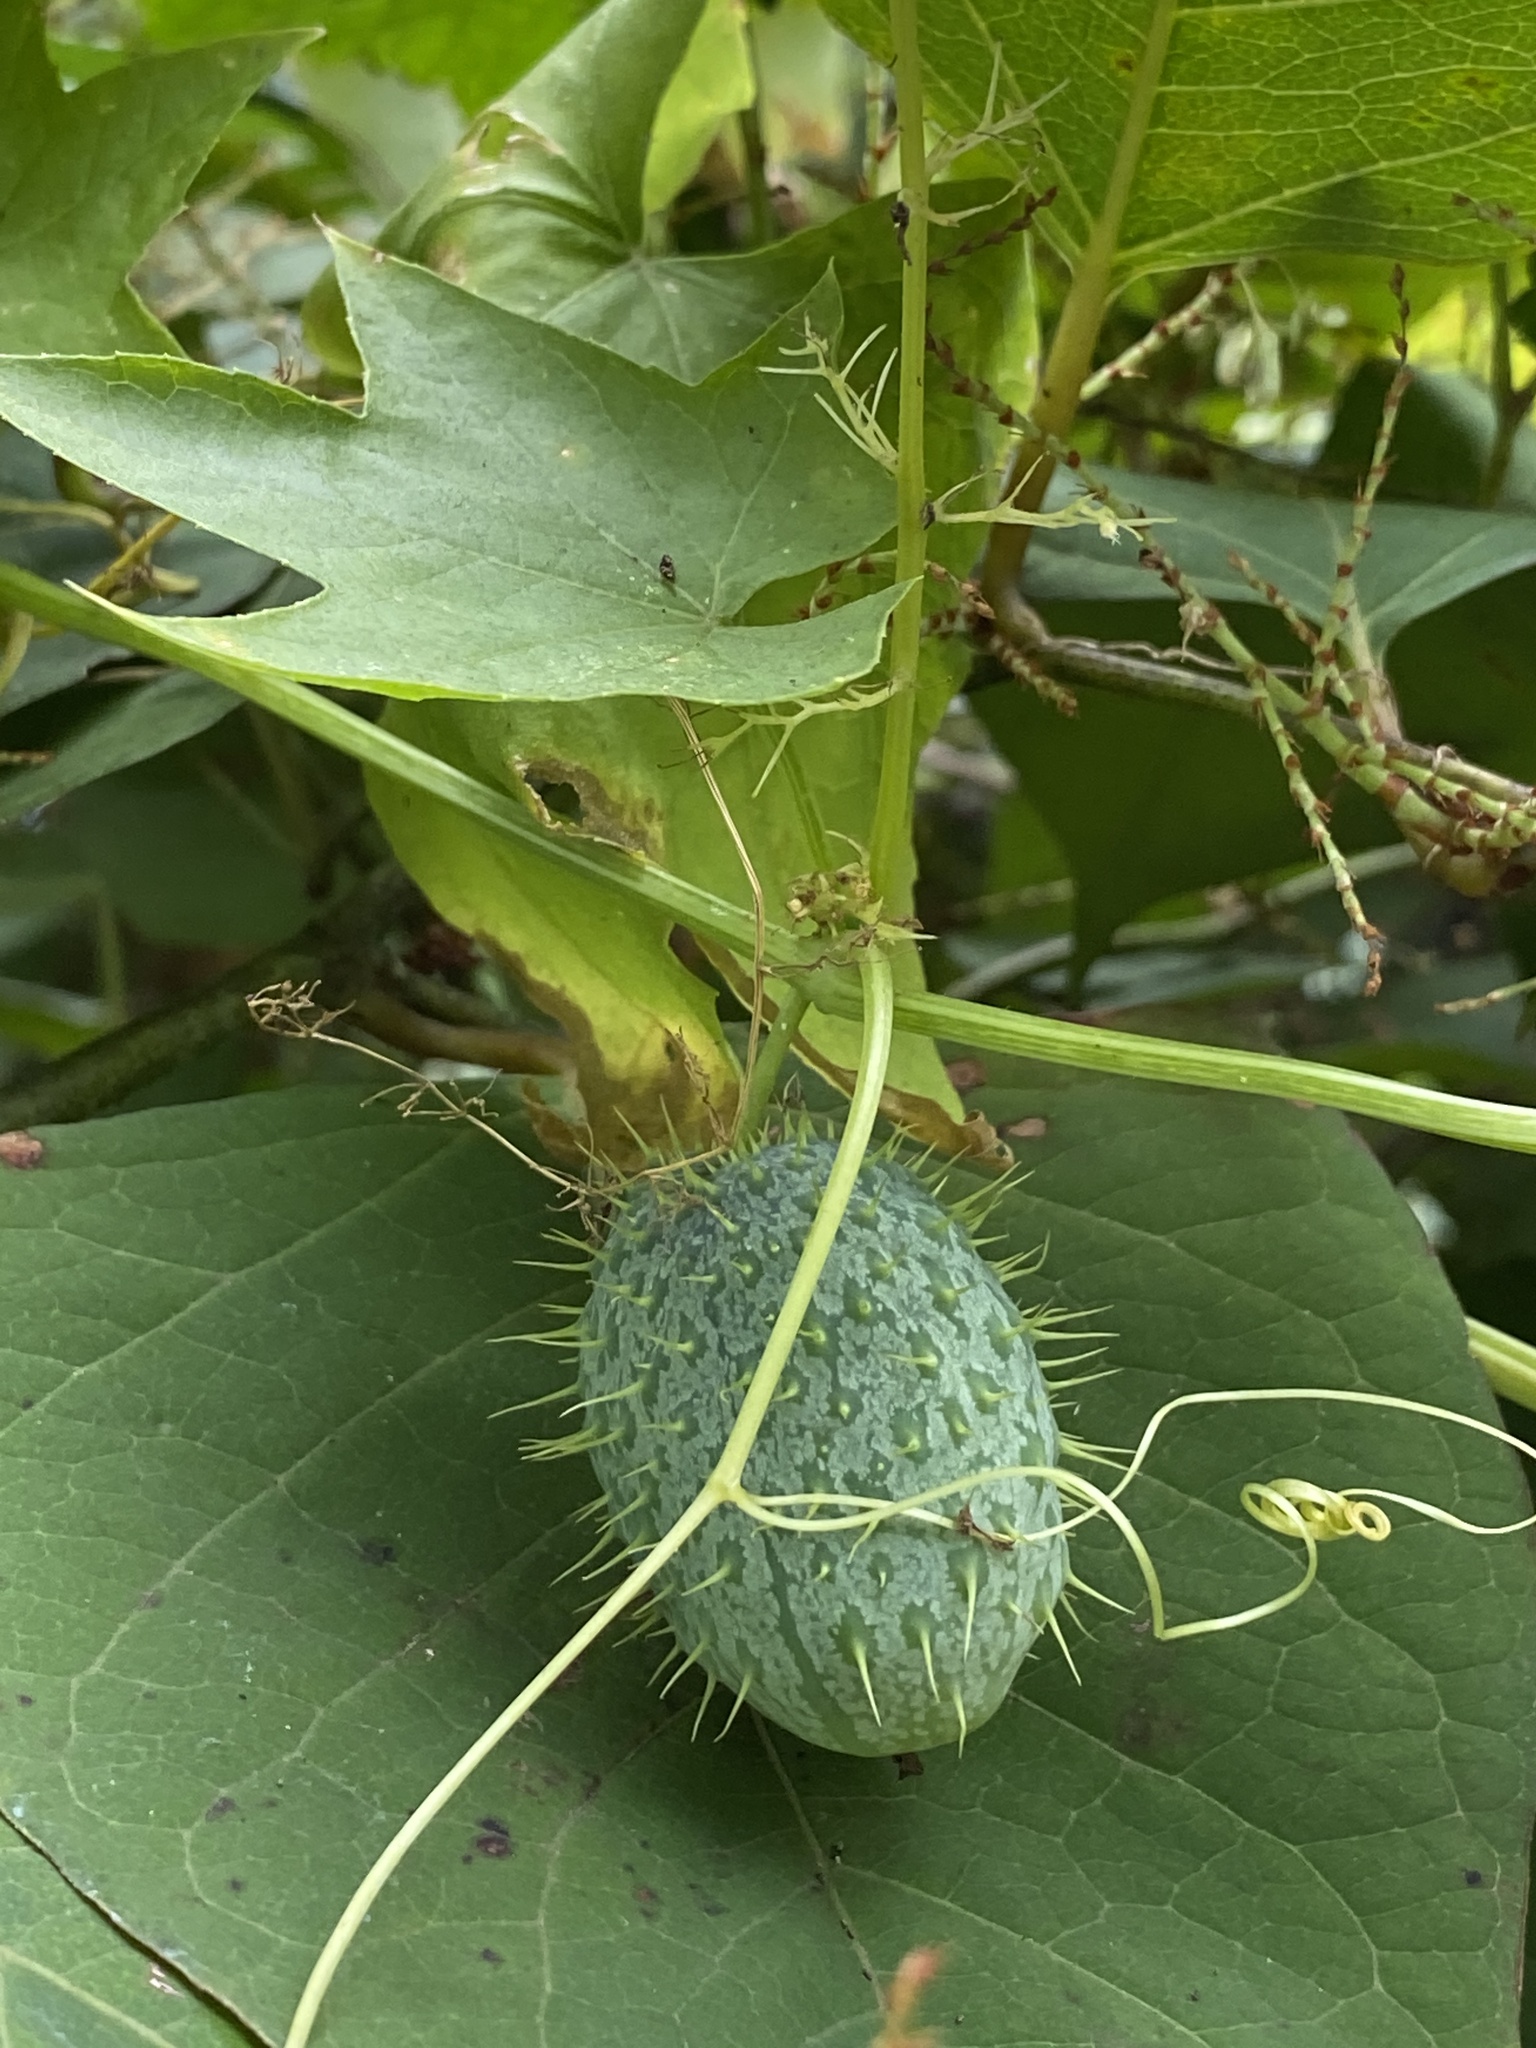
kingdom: Plantae
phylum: Tracheophyta
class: Magnoliopsida
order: Cucurbitales
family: Cucurbitaceae
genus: Echinocystis
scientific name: Echinocystis lobata
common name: Wild cucumber
